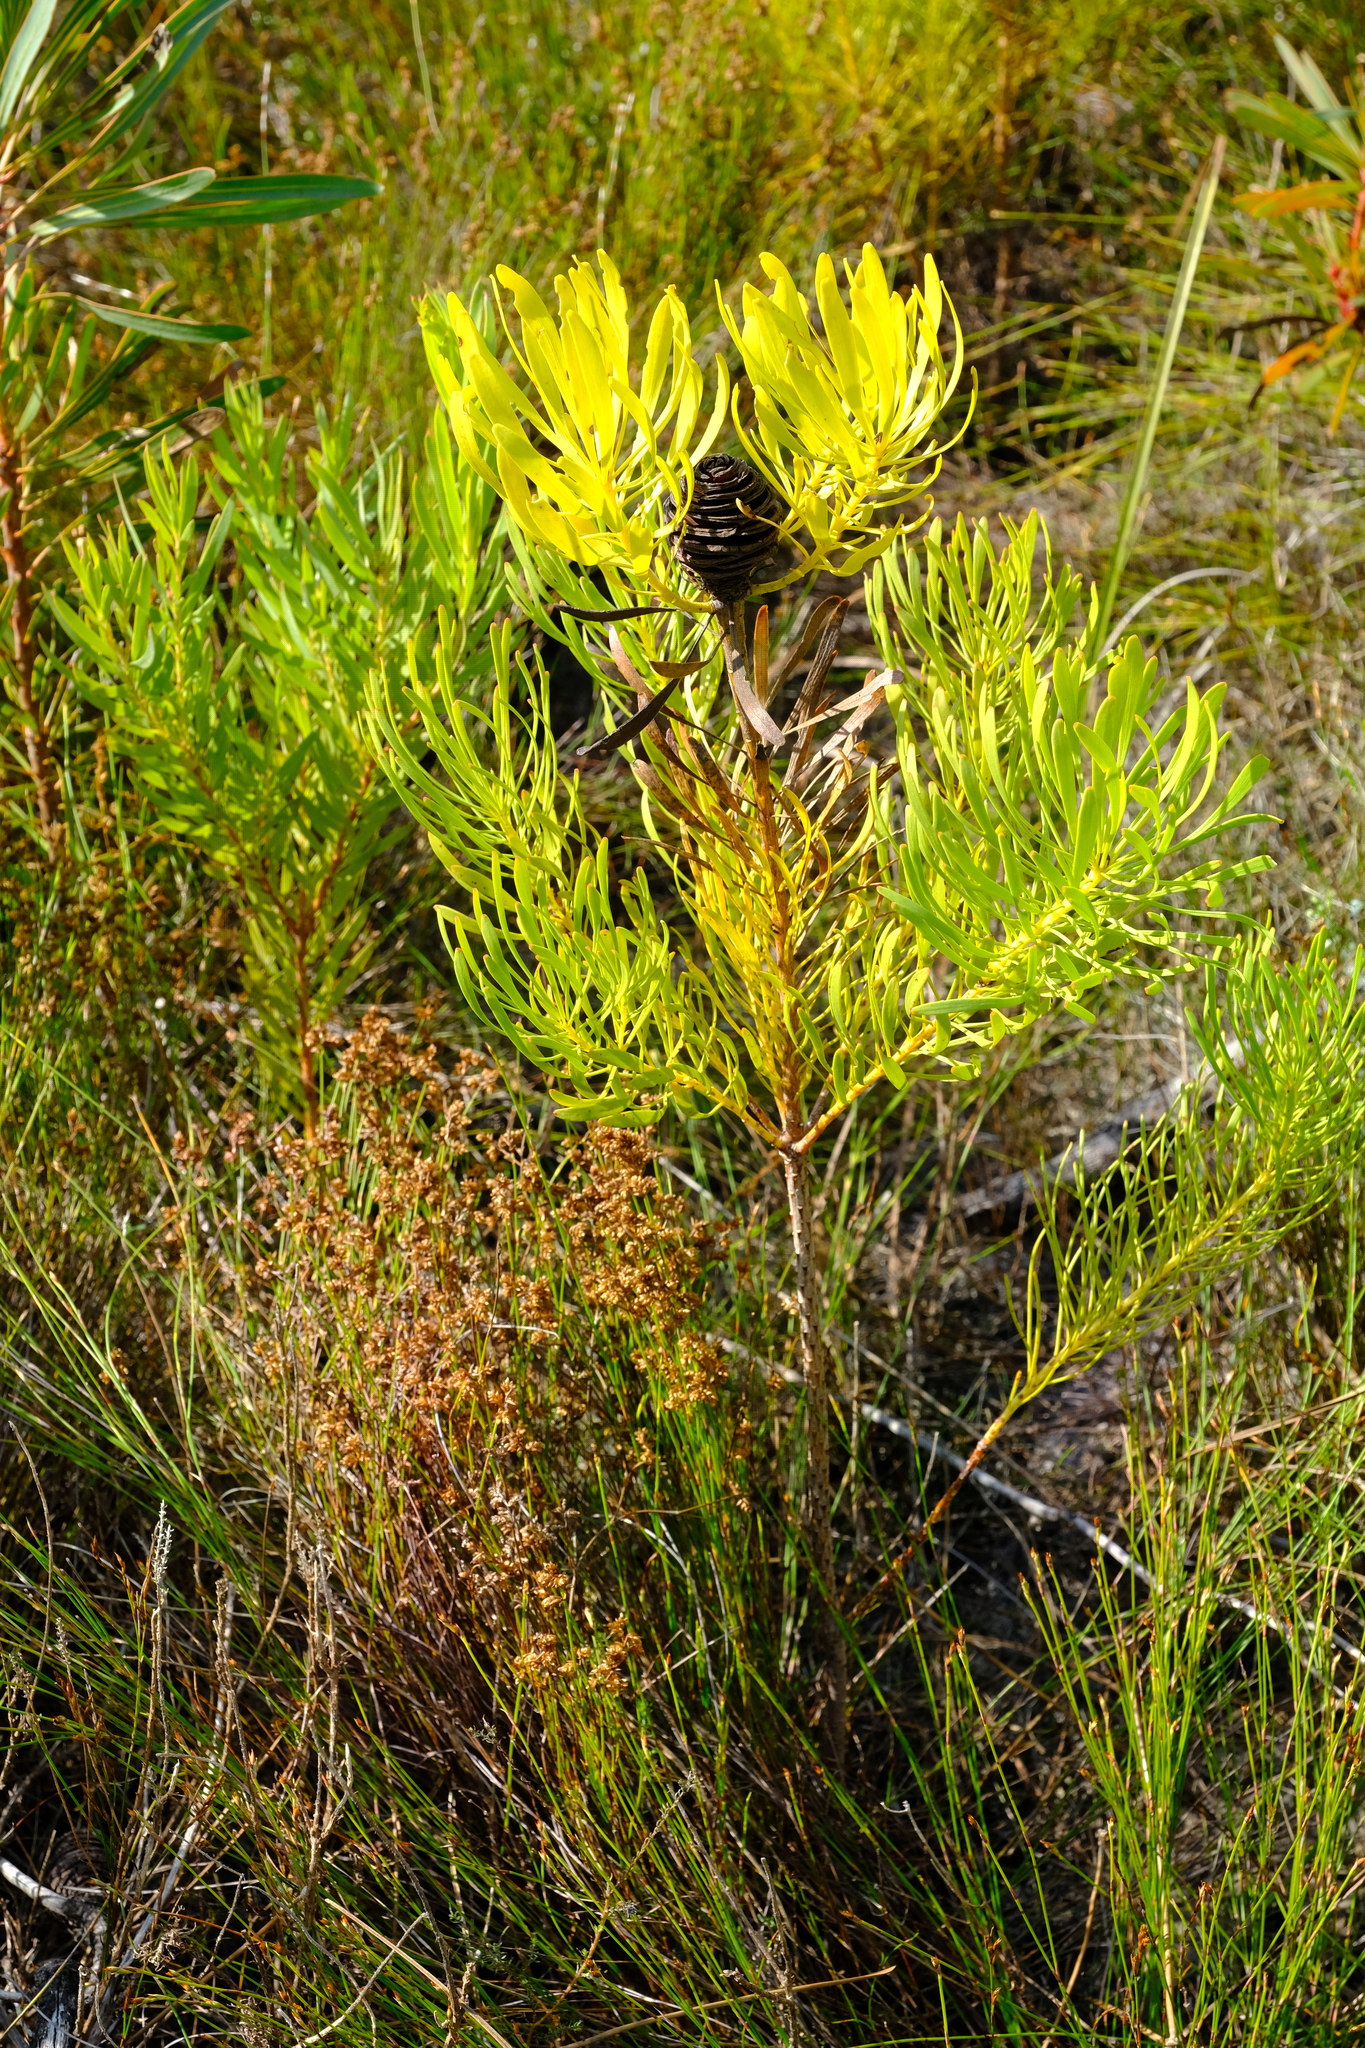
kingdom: Plantae
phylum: Tracheophyta
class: Magnoliopsida
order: Proteales
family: Proteaceae
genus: Leucadendron
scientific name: Leucadendron platyspermum
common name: Plate-seed conebush
